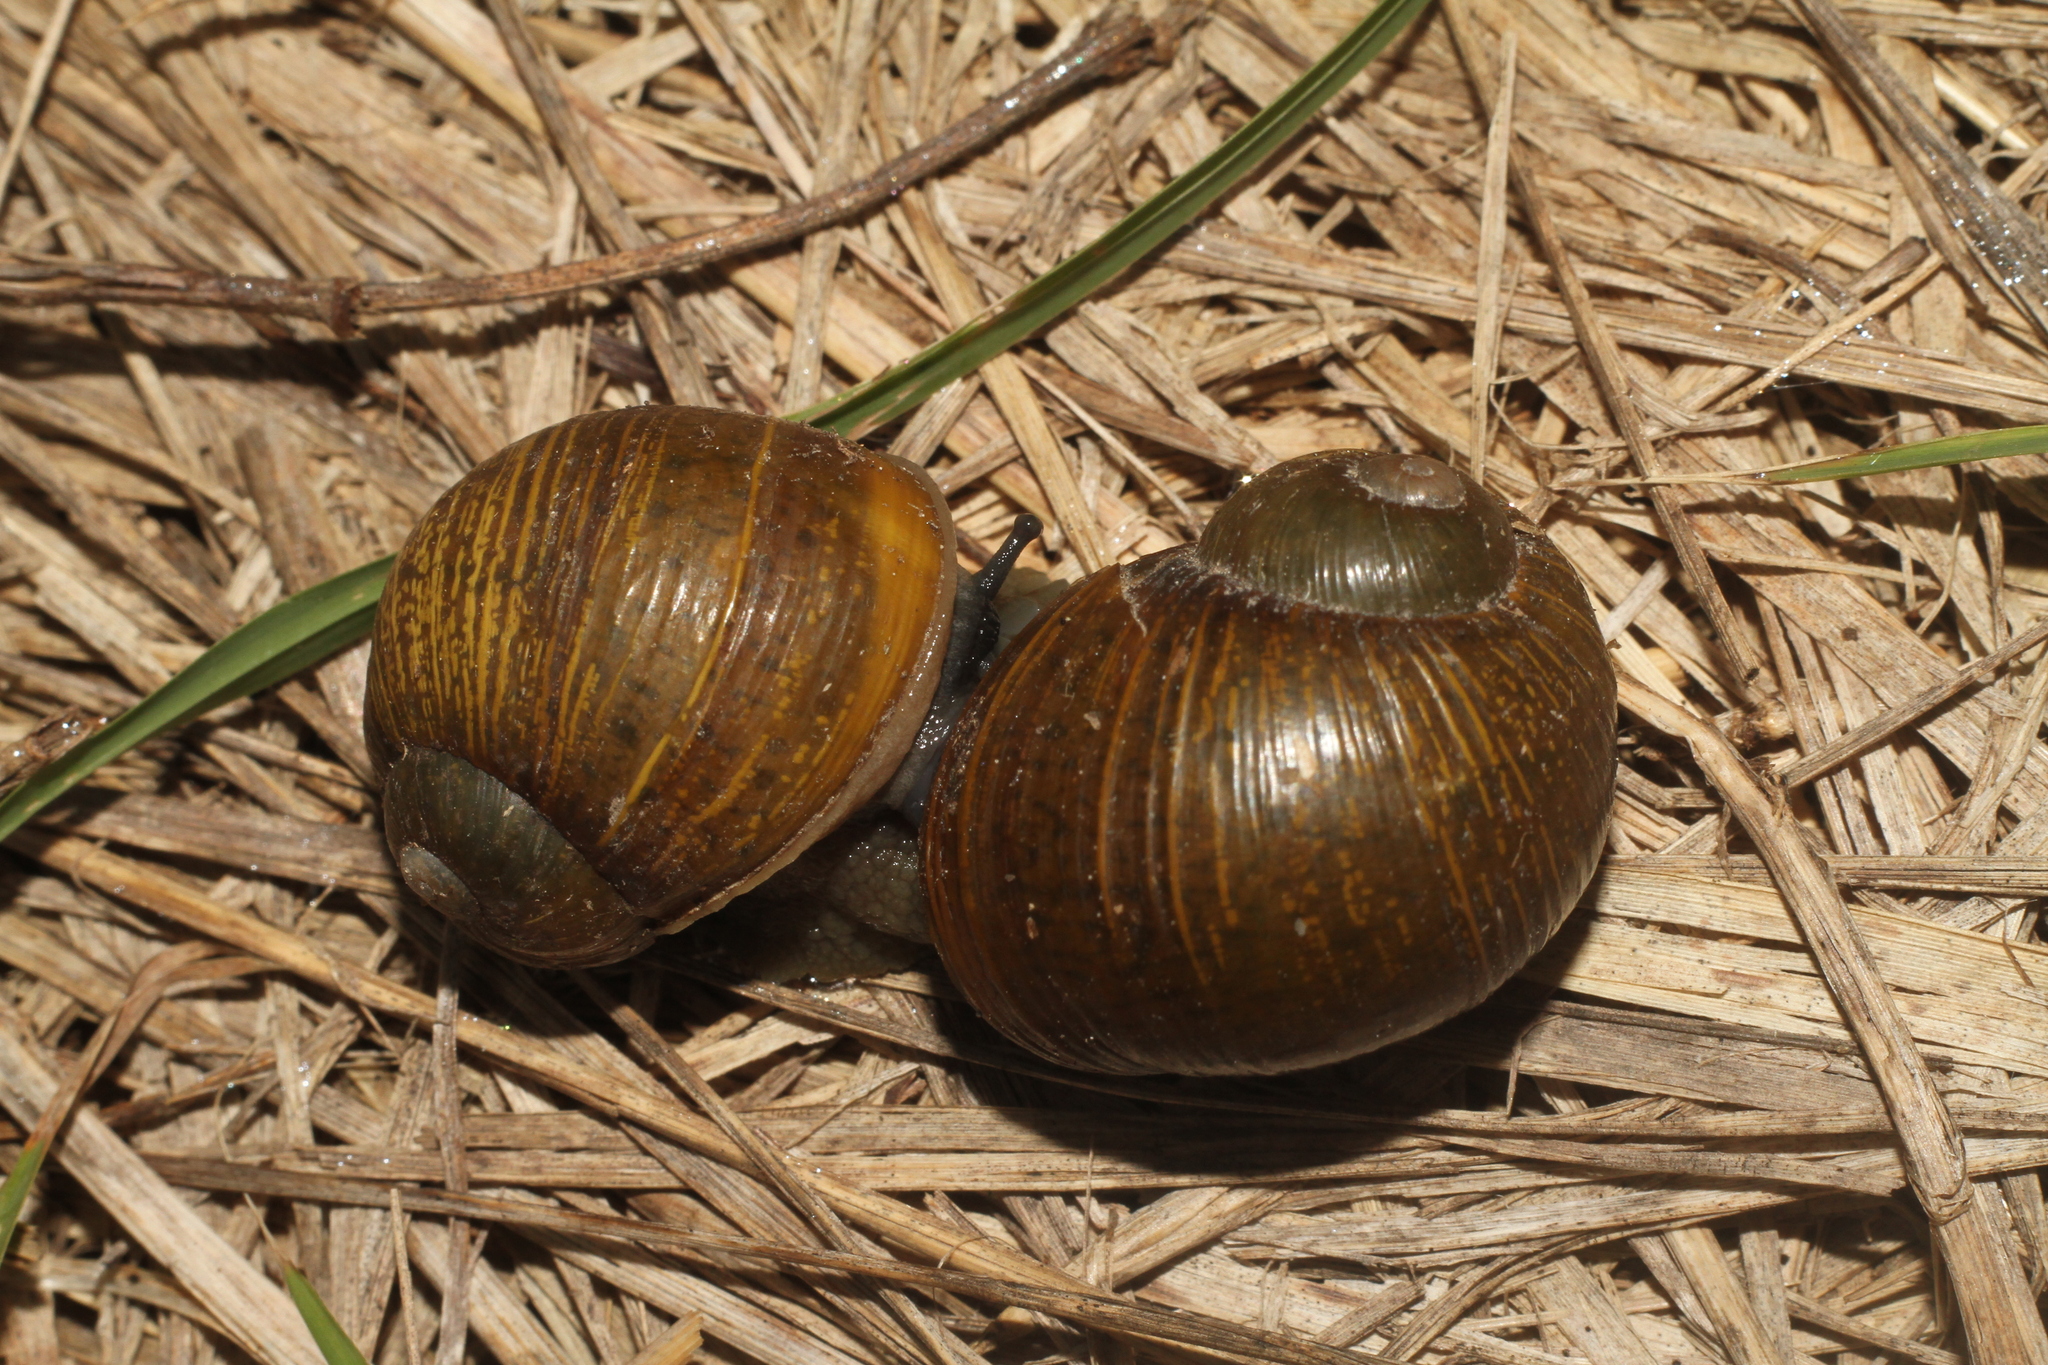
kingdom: Animalia
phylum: Mollusca
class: Gastropoda
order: Stylommatophora
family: Helicidae
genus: Cantareus
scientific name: Cantareus apertus
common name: Green gardensnail
